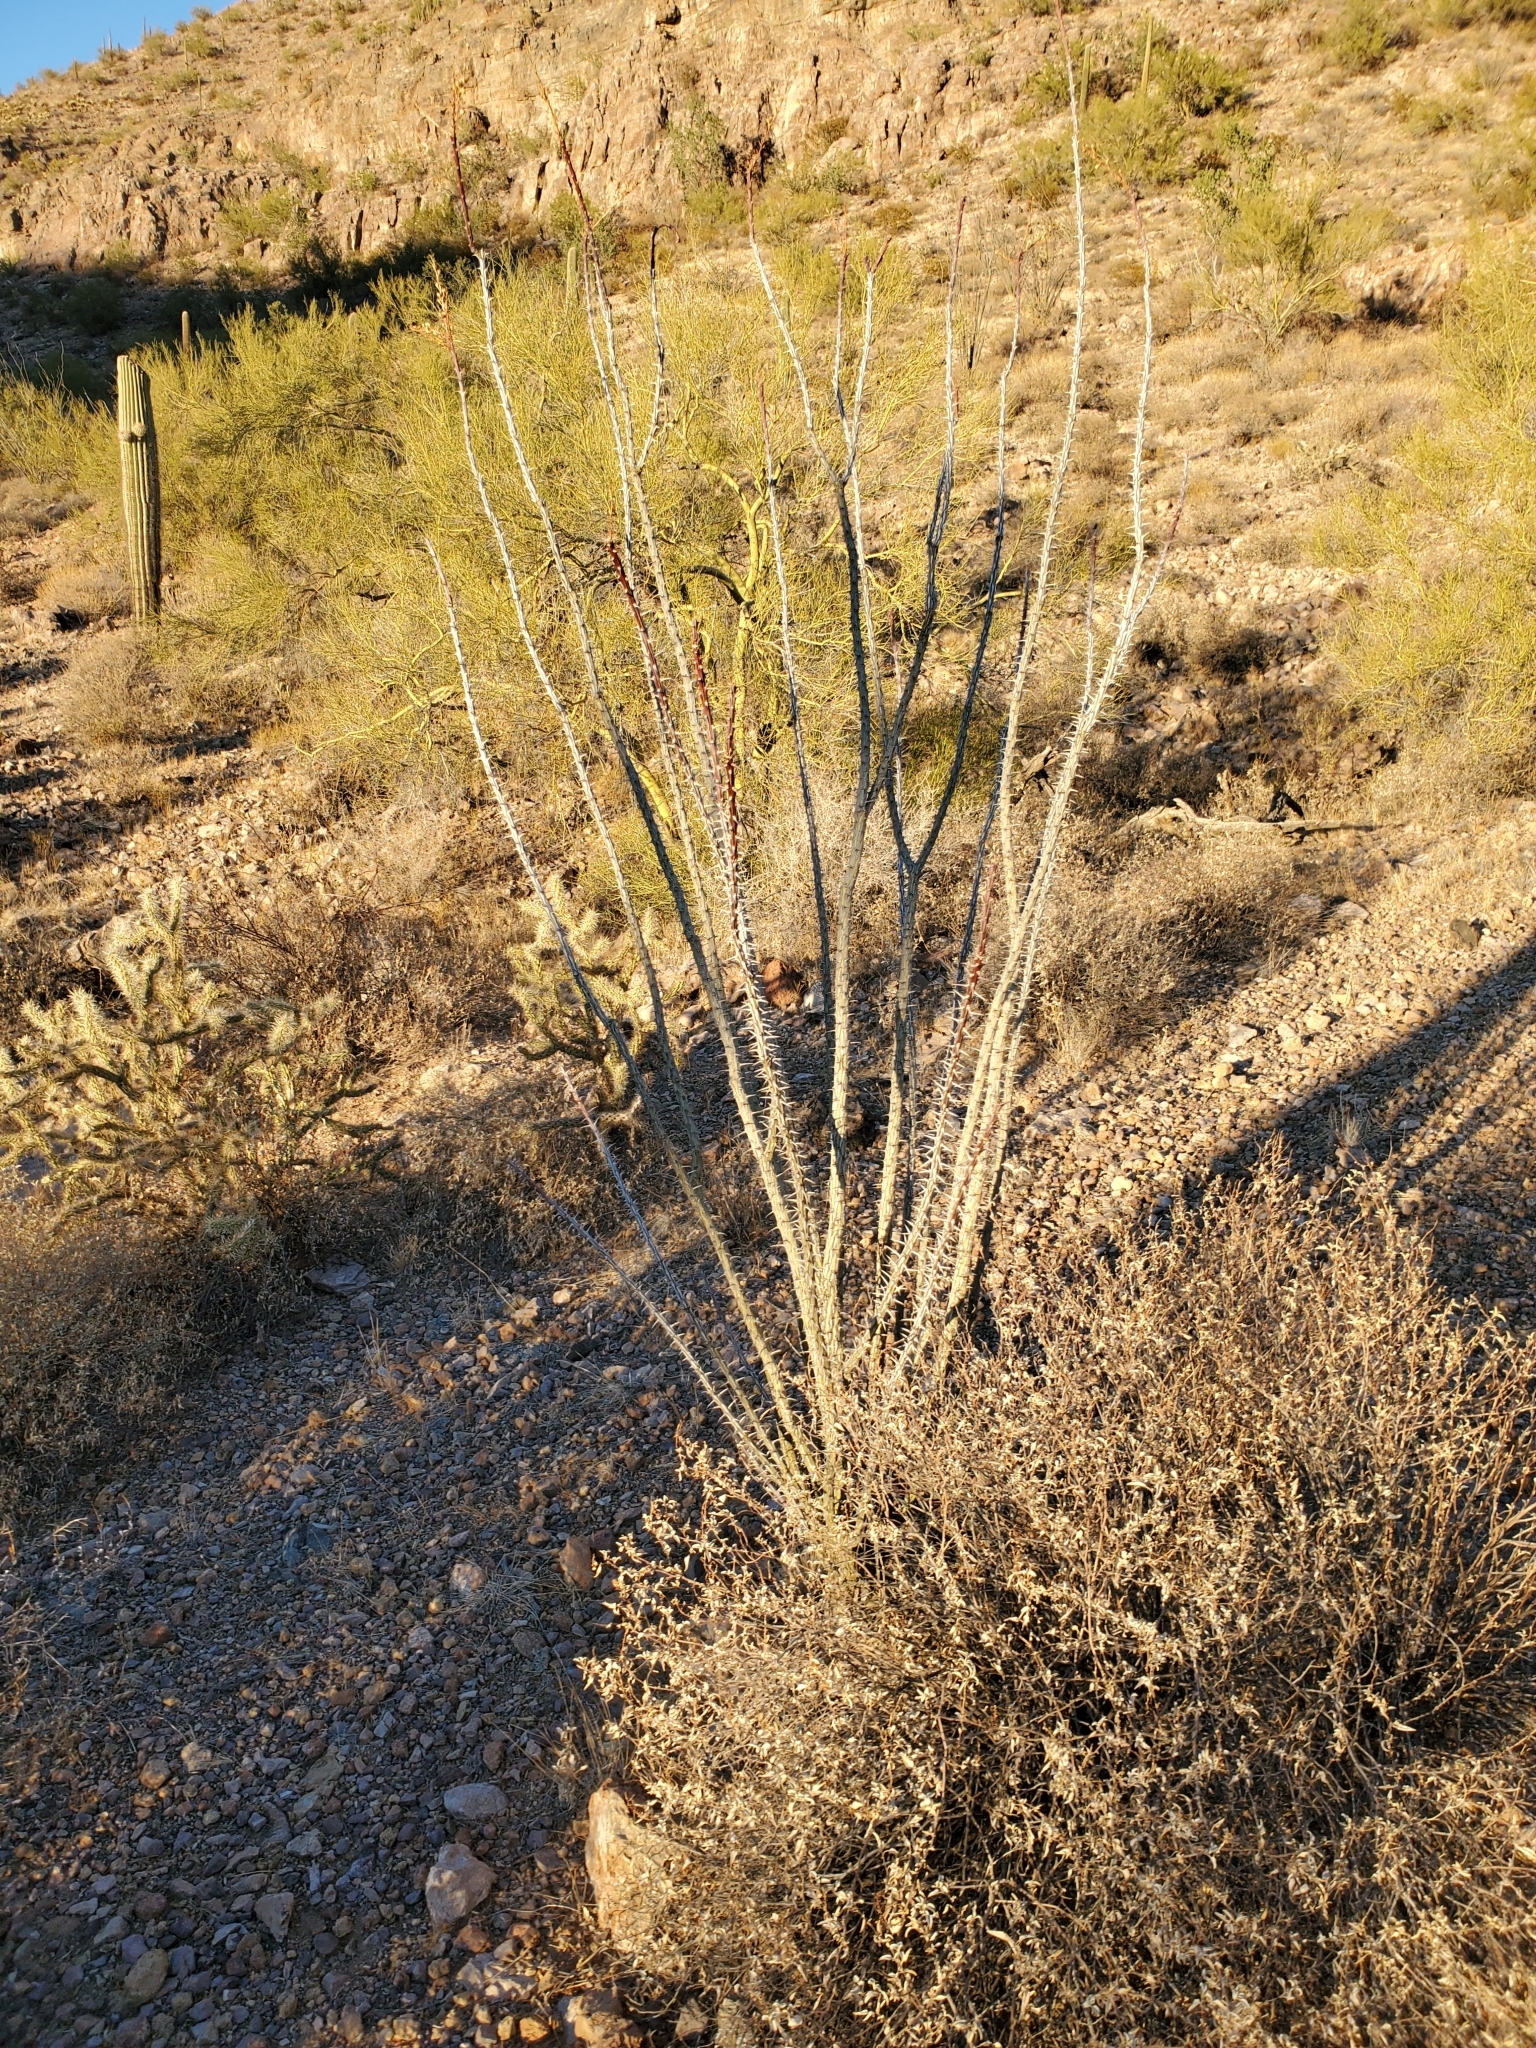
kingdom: Plantae
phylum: Tracheophyta
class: Magnoliopsida
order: Ericales
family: Fouquieriaceae
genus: Fouquieria
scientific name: Fouquieria splendens
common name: Vine-cactus
